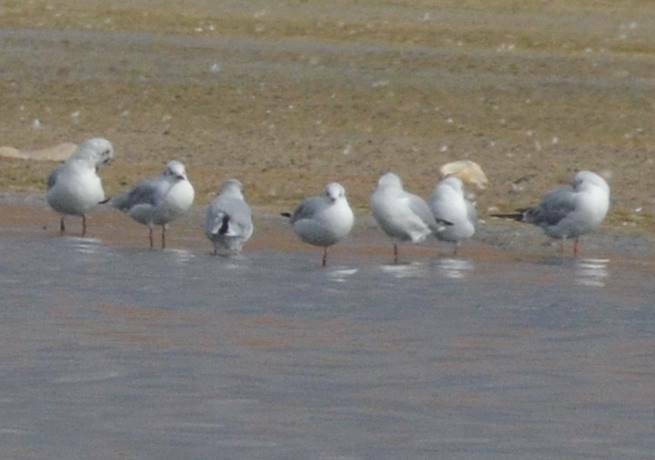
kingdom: Animalia
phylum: Chordata
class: Aves
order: Charadriiformes
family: Laridae
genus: Chroicocephalus
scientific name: Chroicocephalus ridibundus
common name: Black-headed gull
